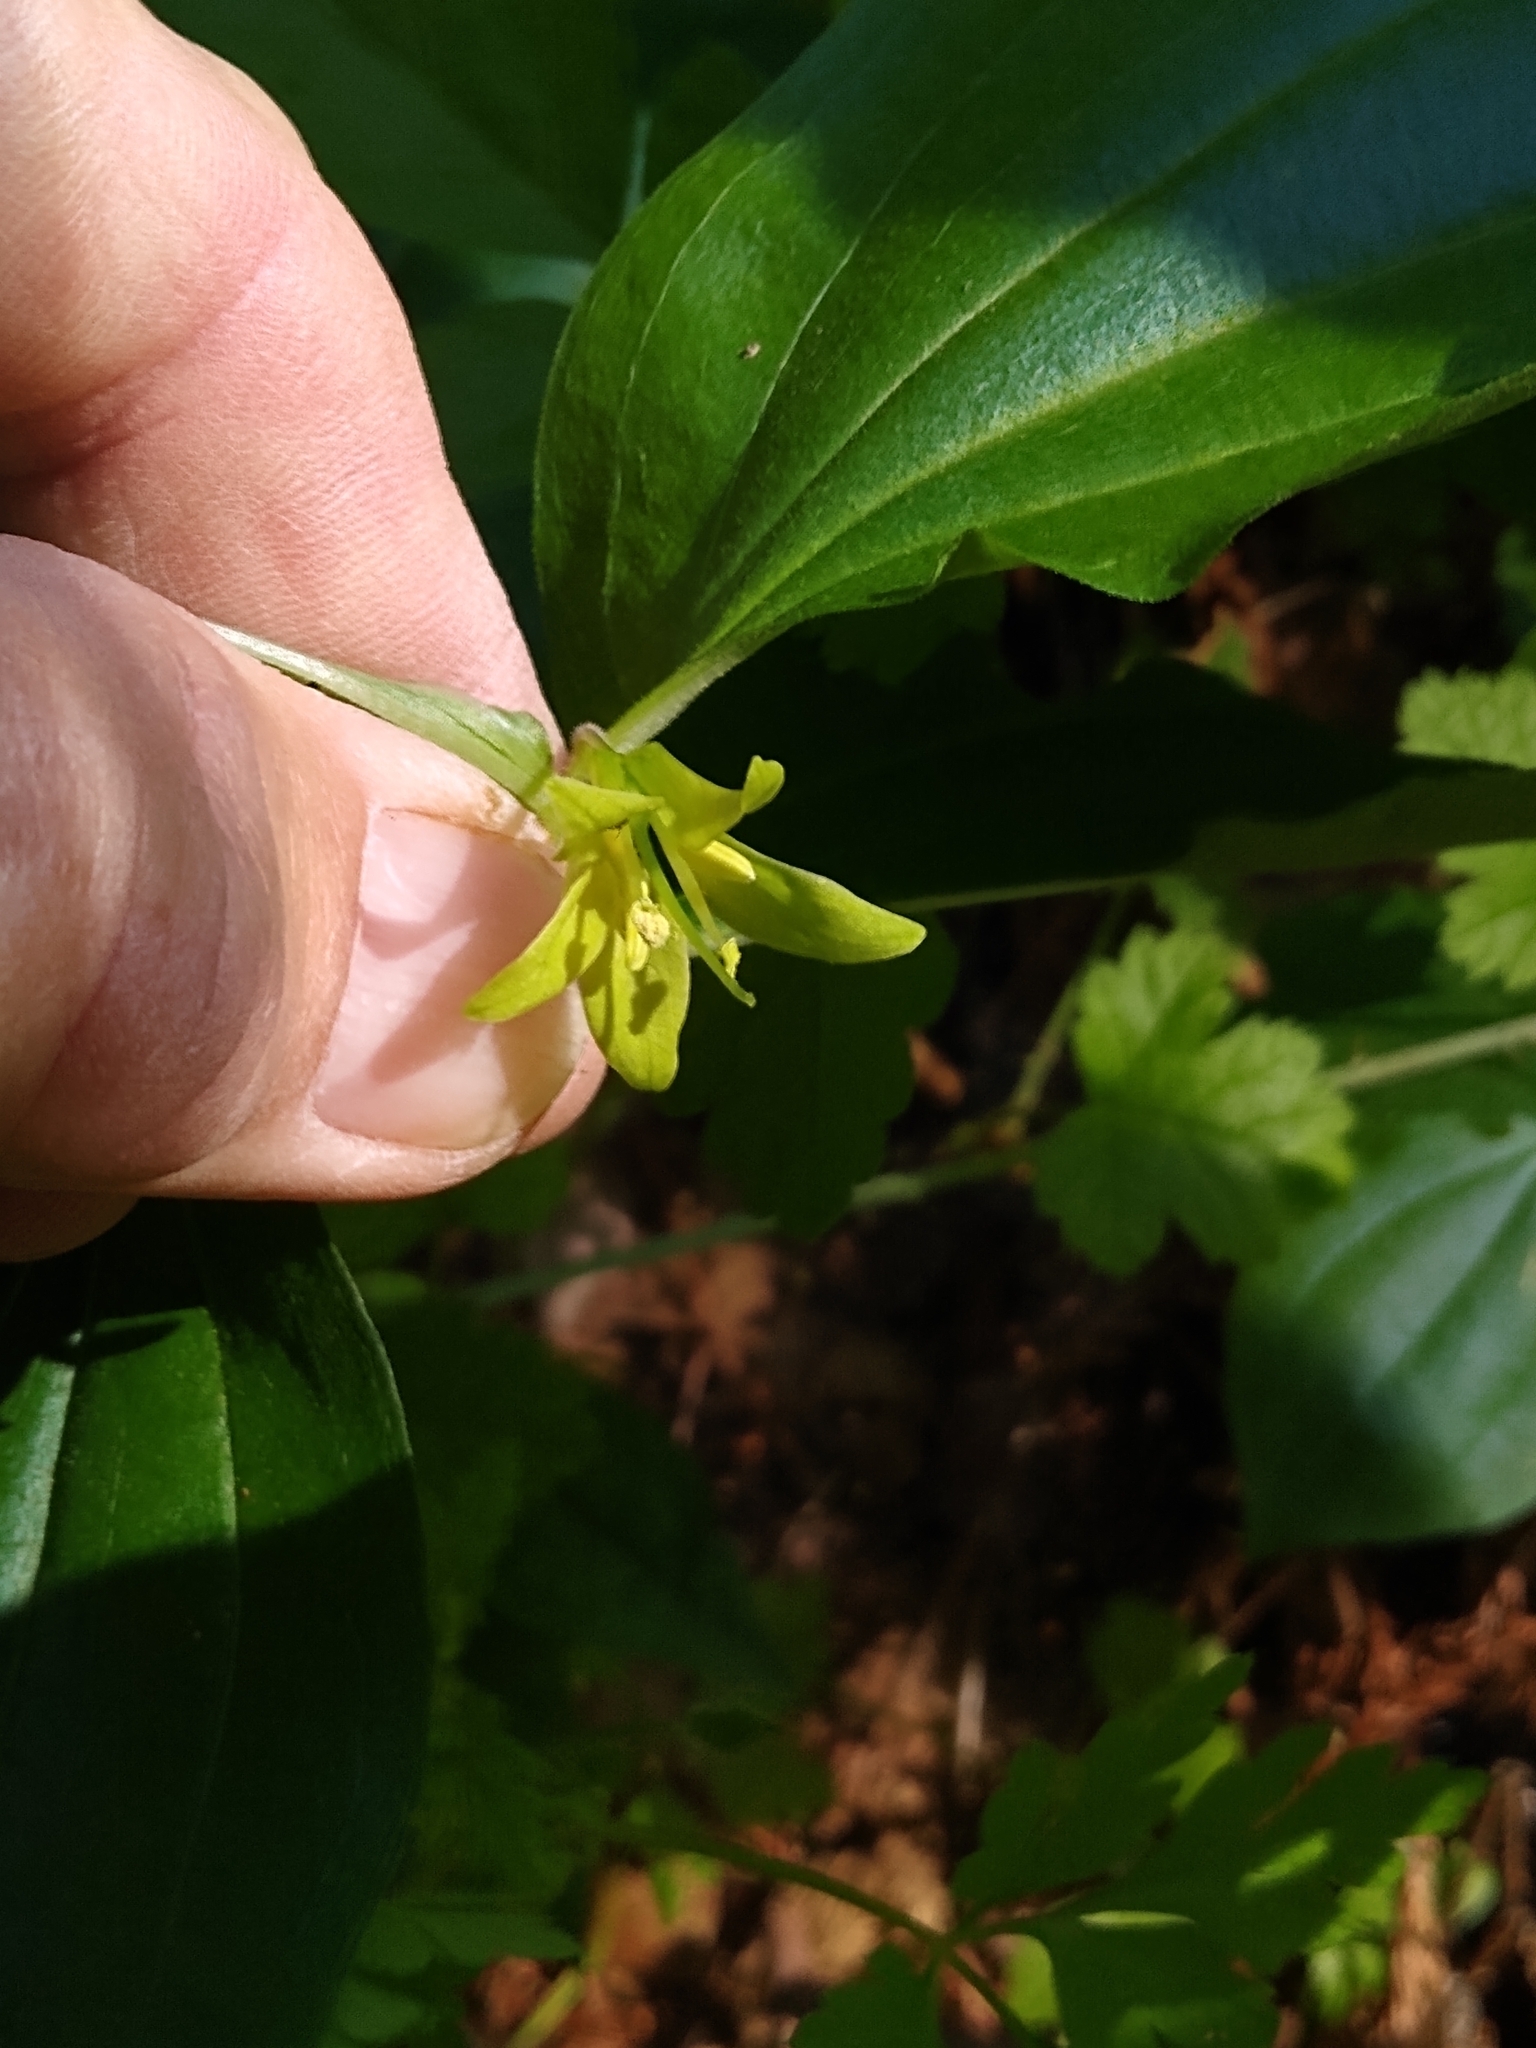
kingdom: Plantae
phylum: Tracheophyta
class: Liliopsida
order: Liliales
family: Liliaceae
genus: Prosartes
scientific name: Prosartes hookeri
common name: Fairy-bells
